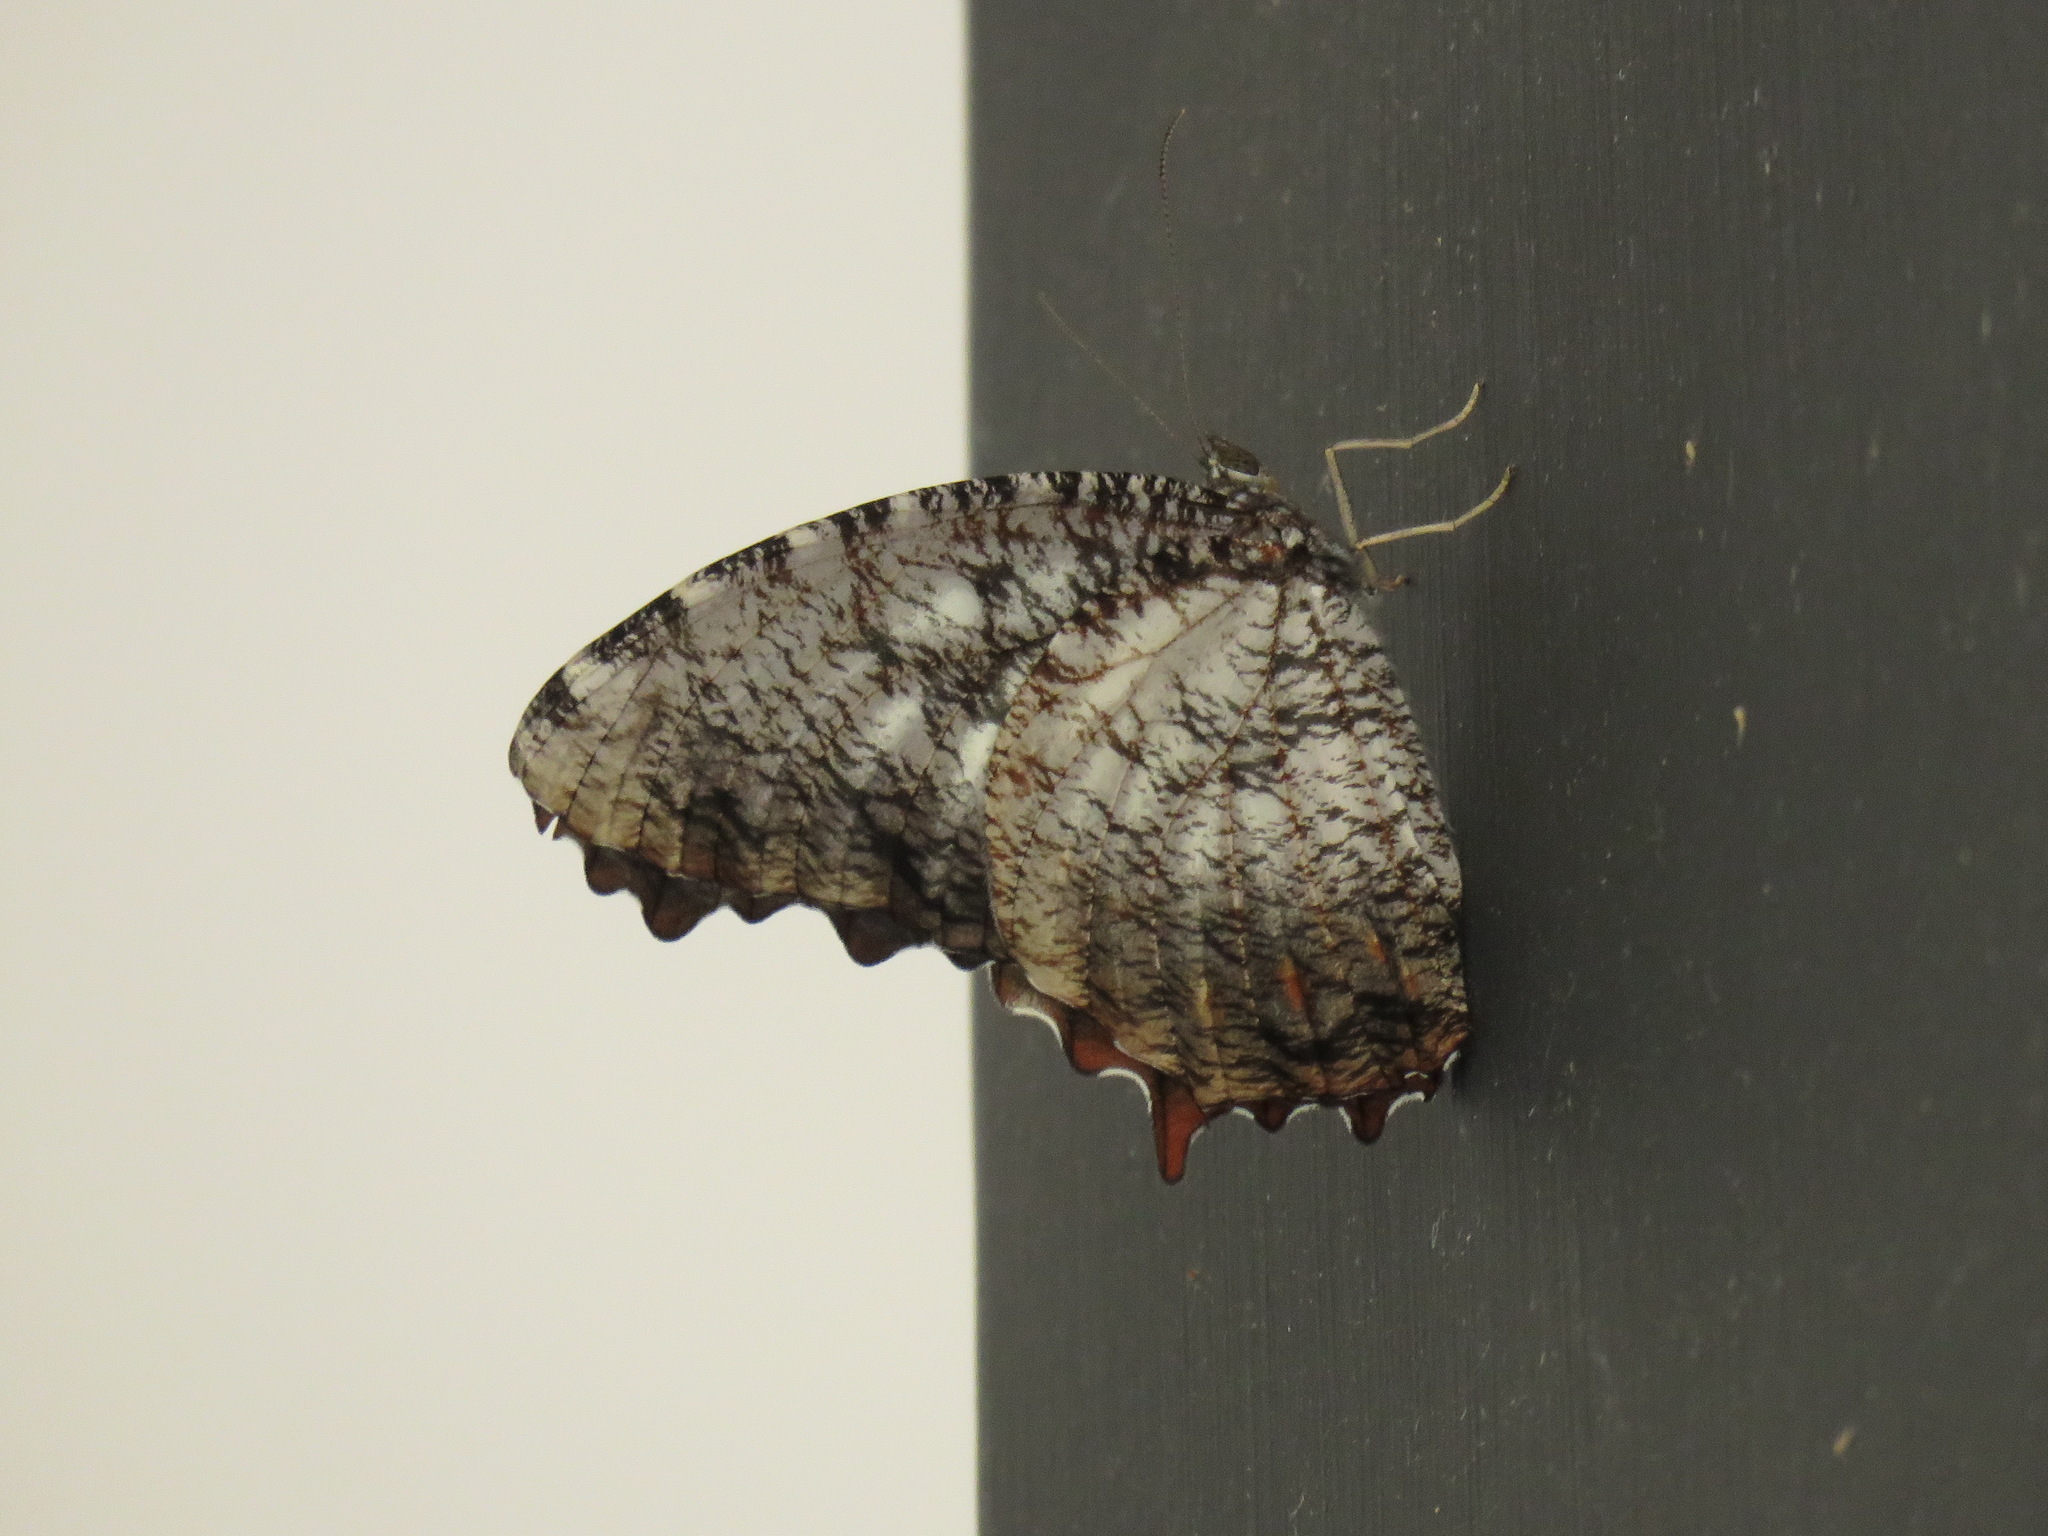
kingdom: Animalia
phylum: Arthropoda
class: Insecta
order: Lepidoptera
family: Nymphalidae
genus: Elymnias
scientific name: Elymnias nesaea
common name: Tiger palmfly
